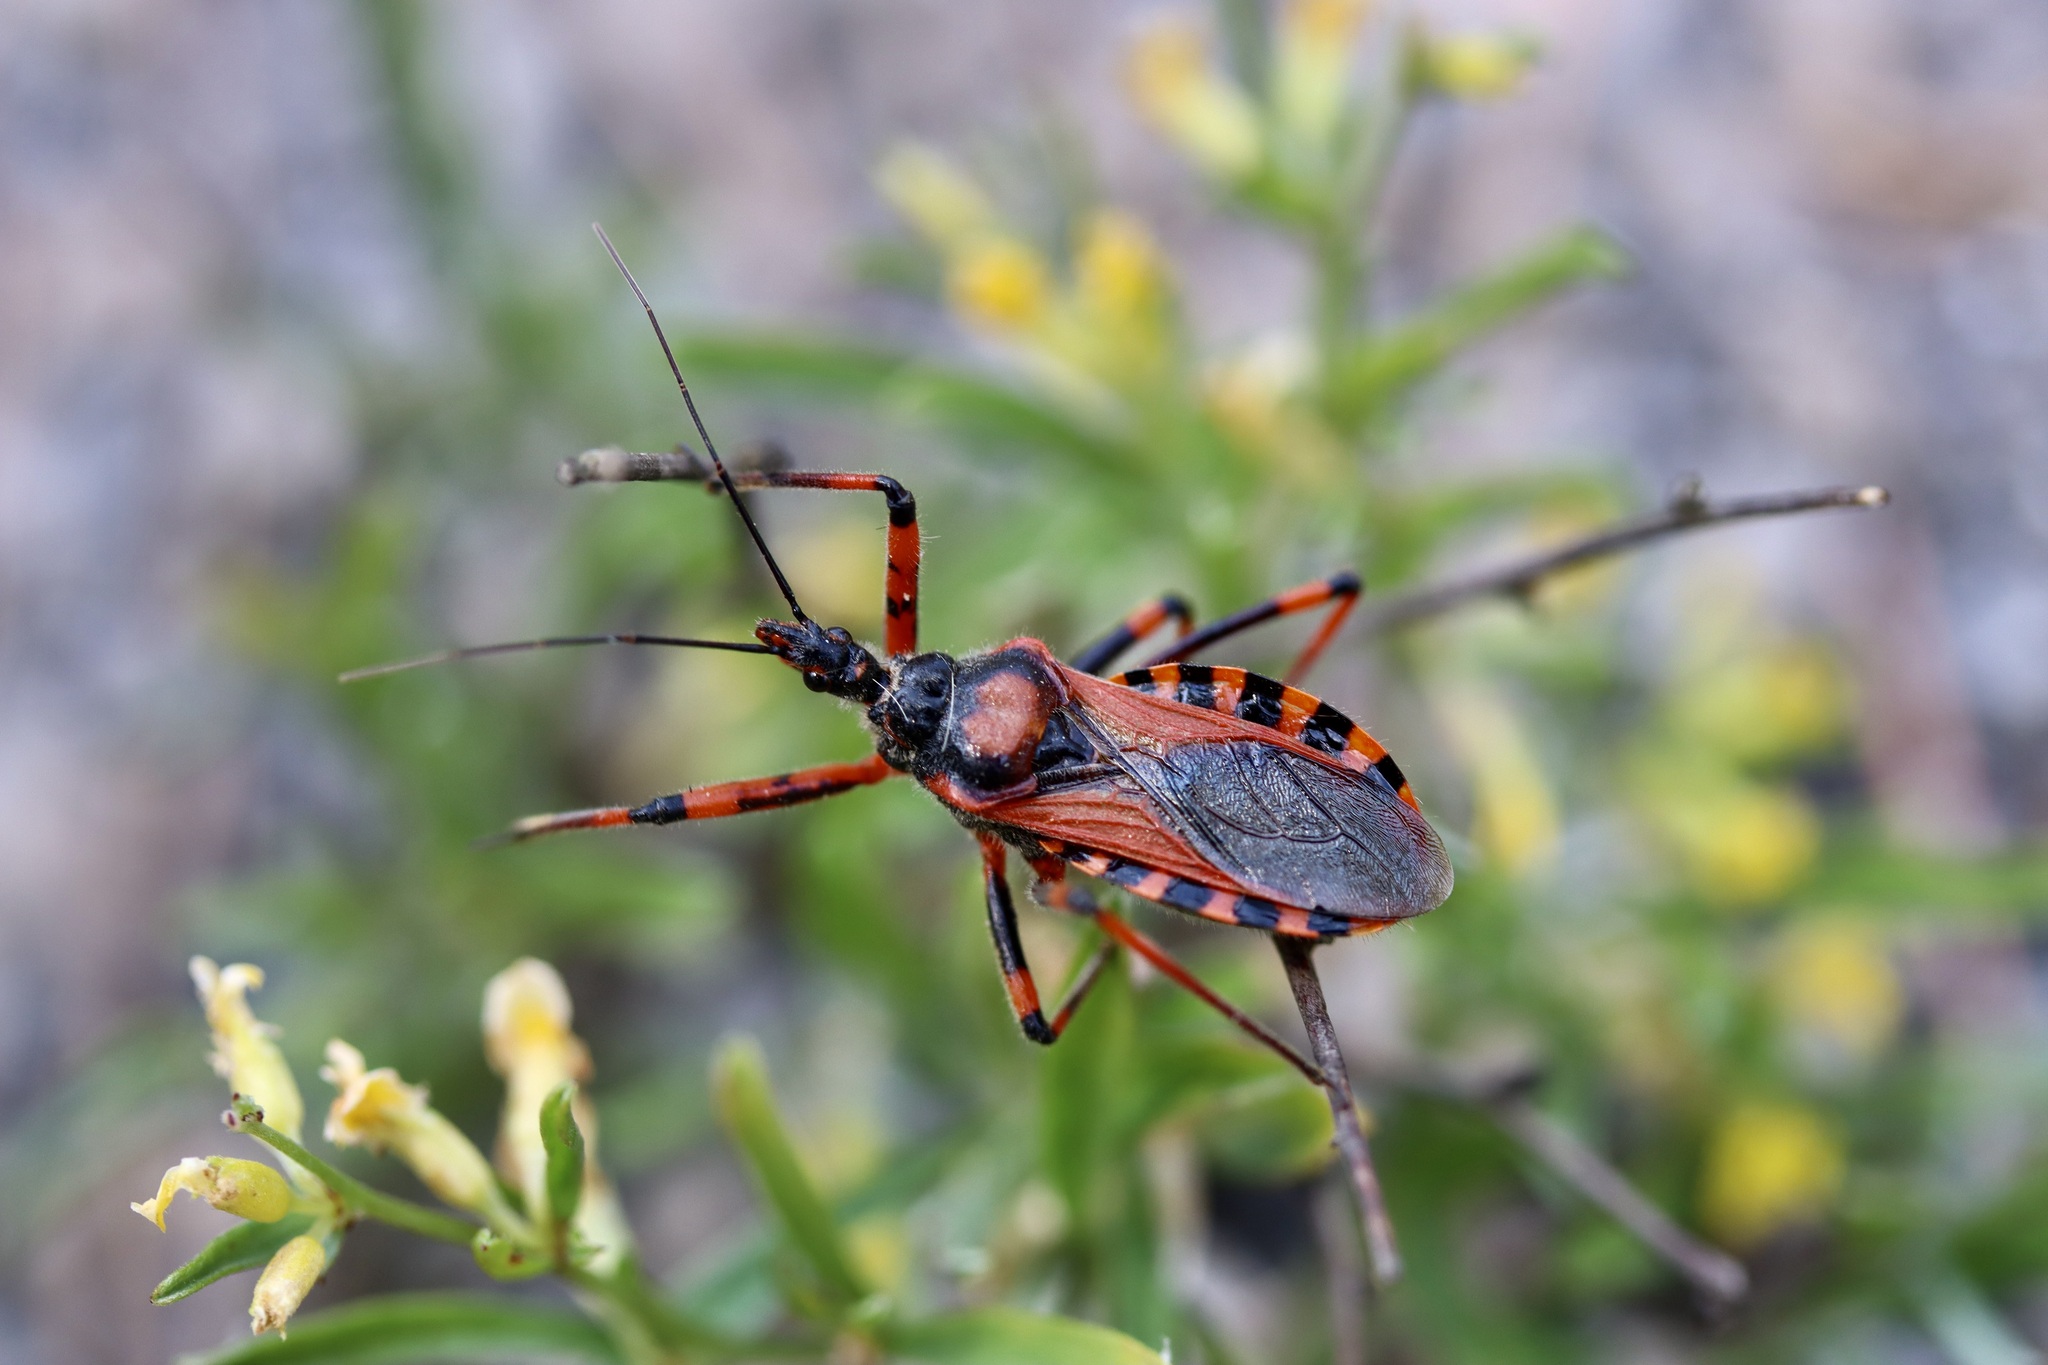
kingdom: Animalia
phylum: Arthropoda
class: Insecta
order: Hemiptera
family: Reduviidae
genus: Rhynocoris
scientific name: Rhynocoris iracundus
